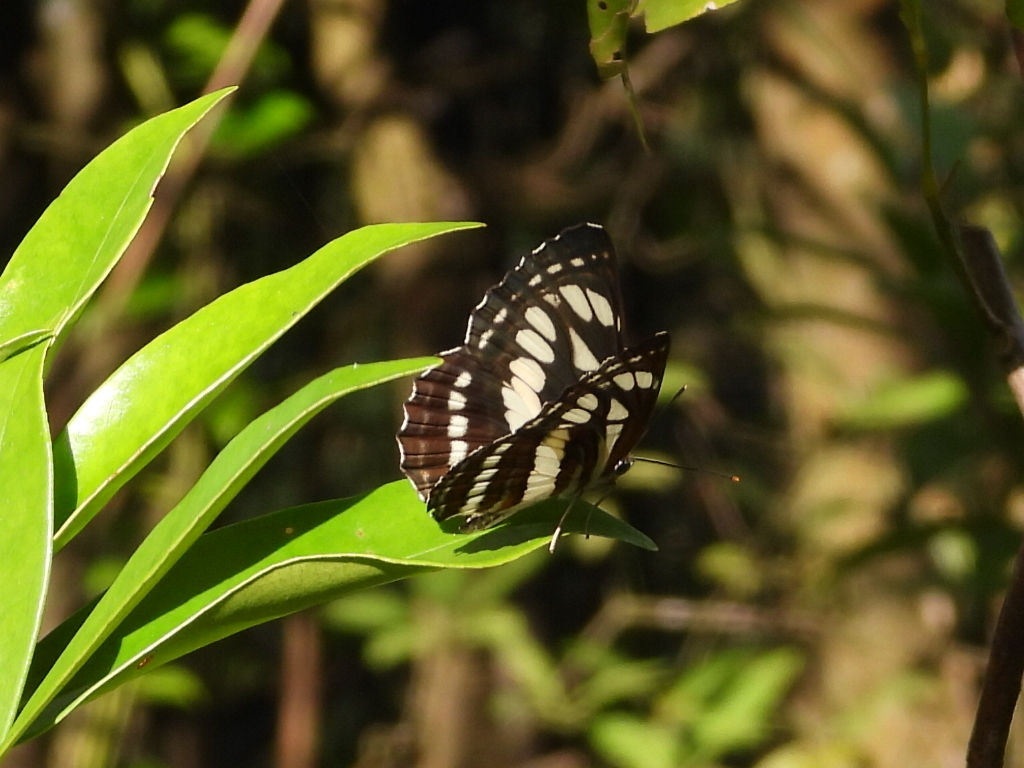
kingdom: Animalia
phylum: Arthropoda
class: Insecta
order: Lepidoptera
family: Nymphalidae
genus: Neptis
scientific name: Neptis hylas
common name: Common sailer
